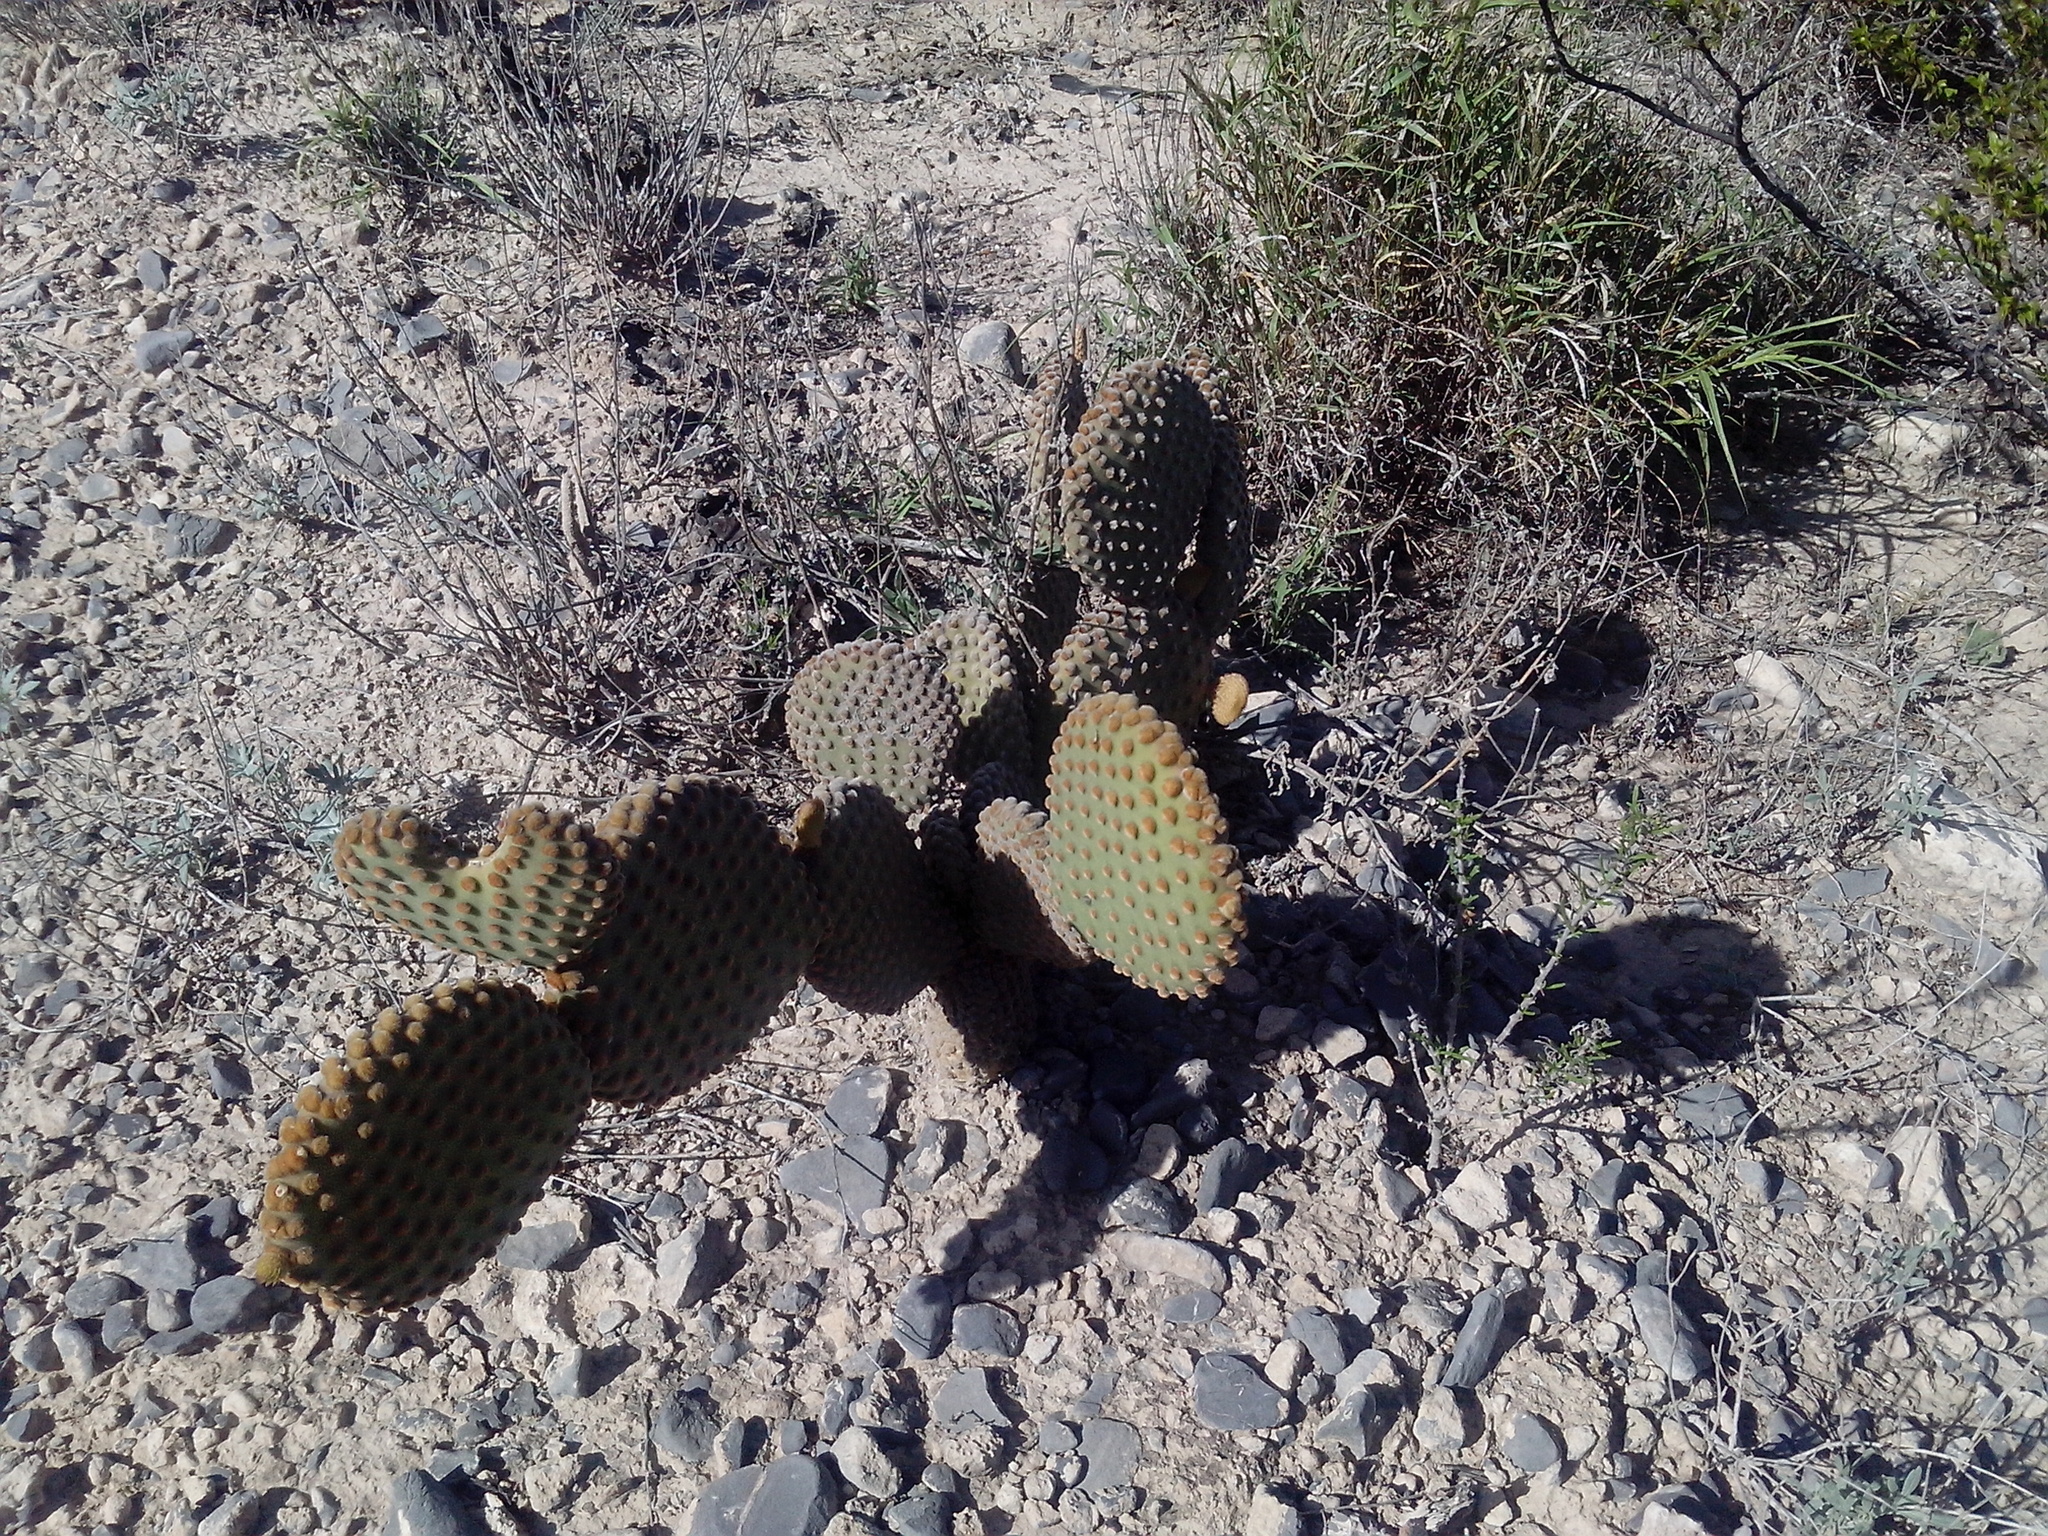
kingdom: Plantae
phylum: Tracheophyta
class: Magnoliopsida
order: Caryophyllales
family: Cactaceae
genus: Opuntia
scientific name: Opuntia microdasys
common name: Angel's-wings
